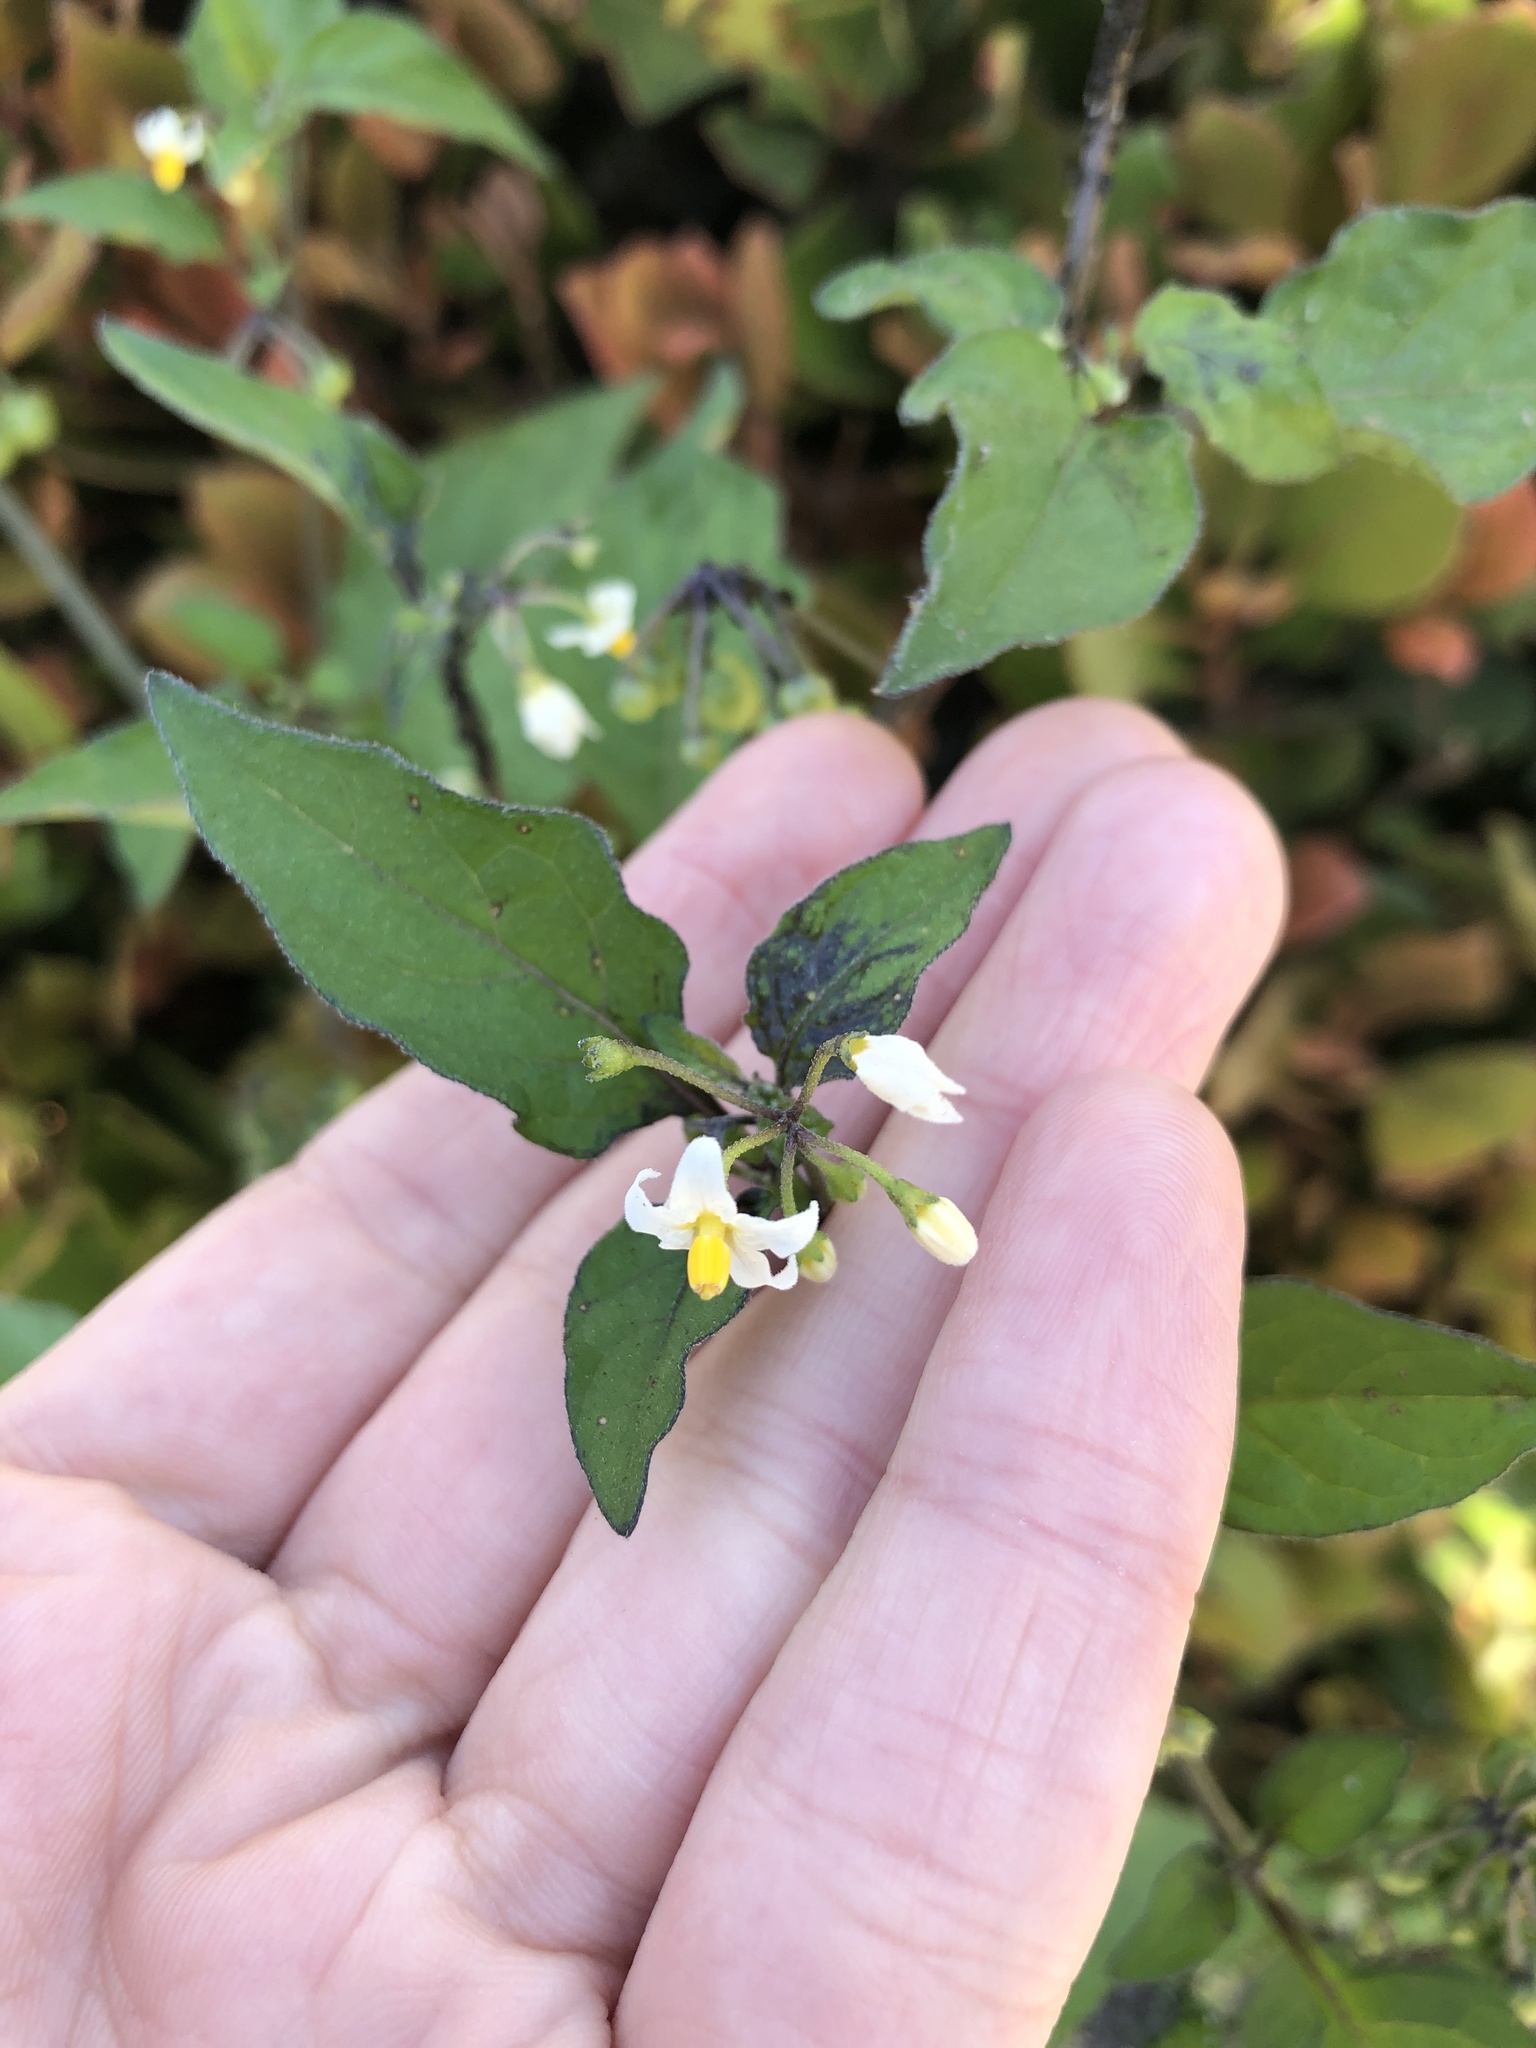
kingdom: Plantae
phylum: Tracheophyta
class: Magnoliopsida
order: Solanales
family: Solanaceae
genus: Solanum
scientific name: Solanum nigrum
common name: Black nightshade
